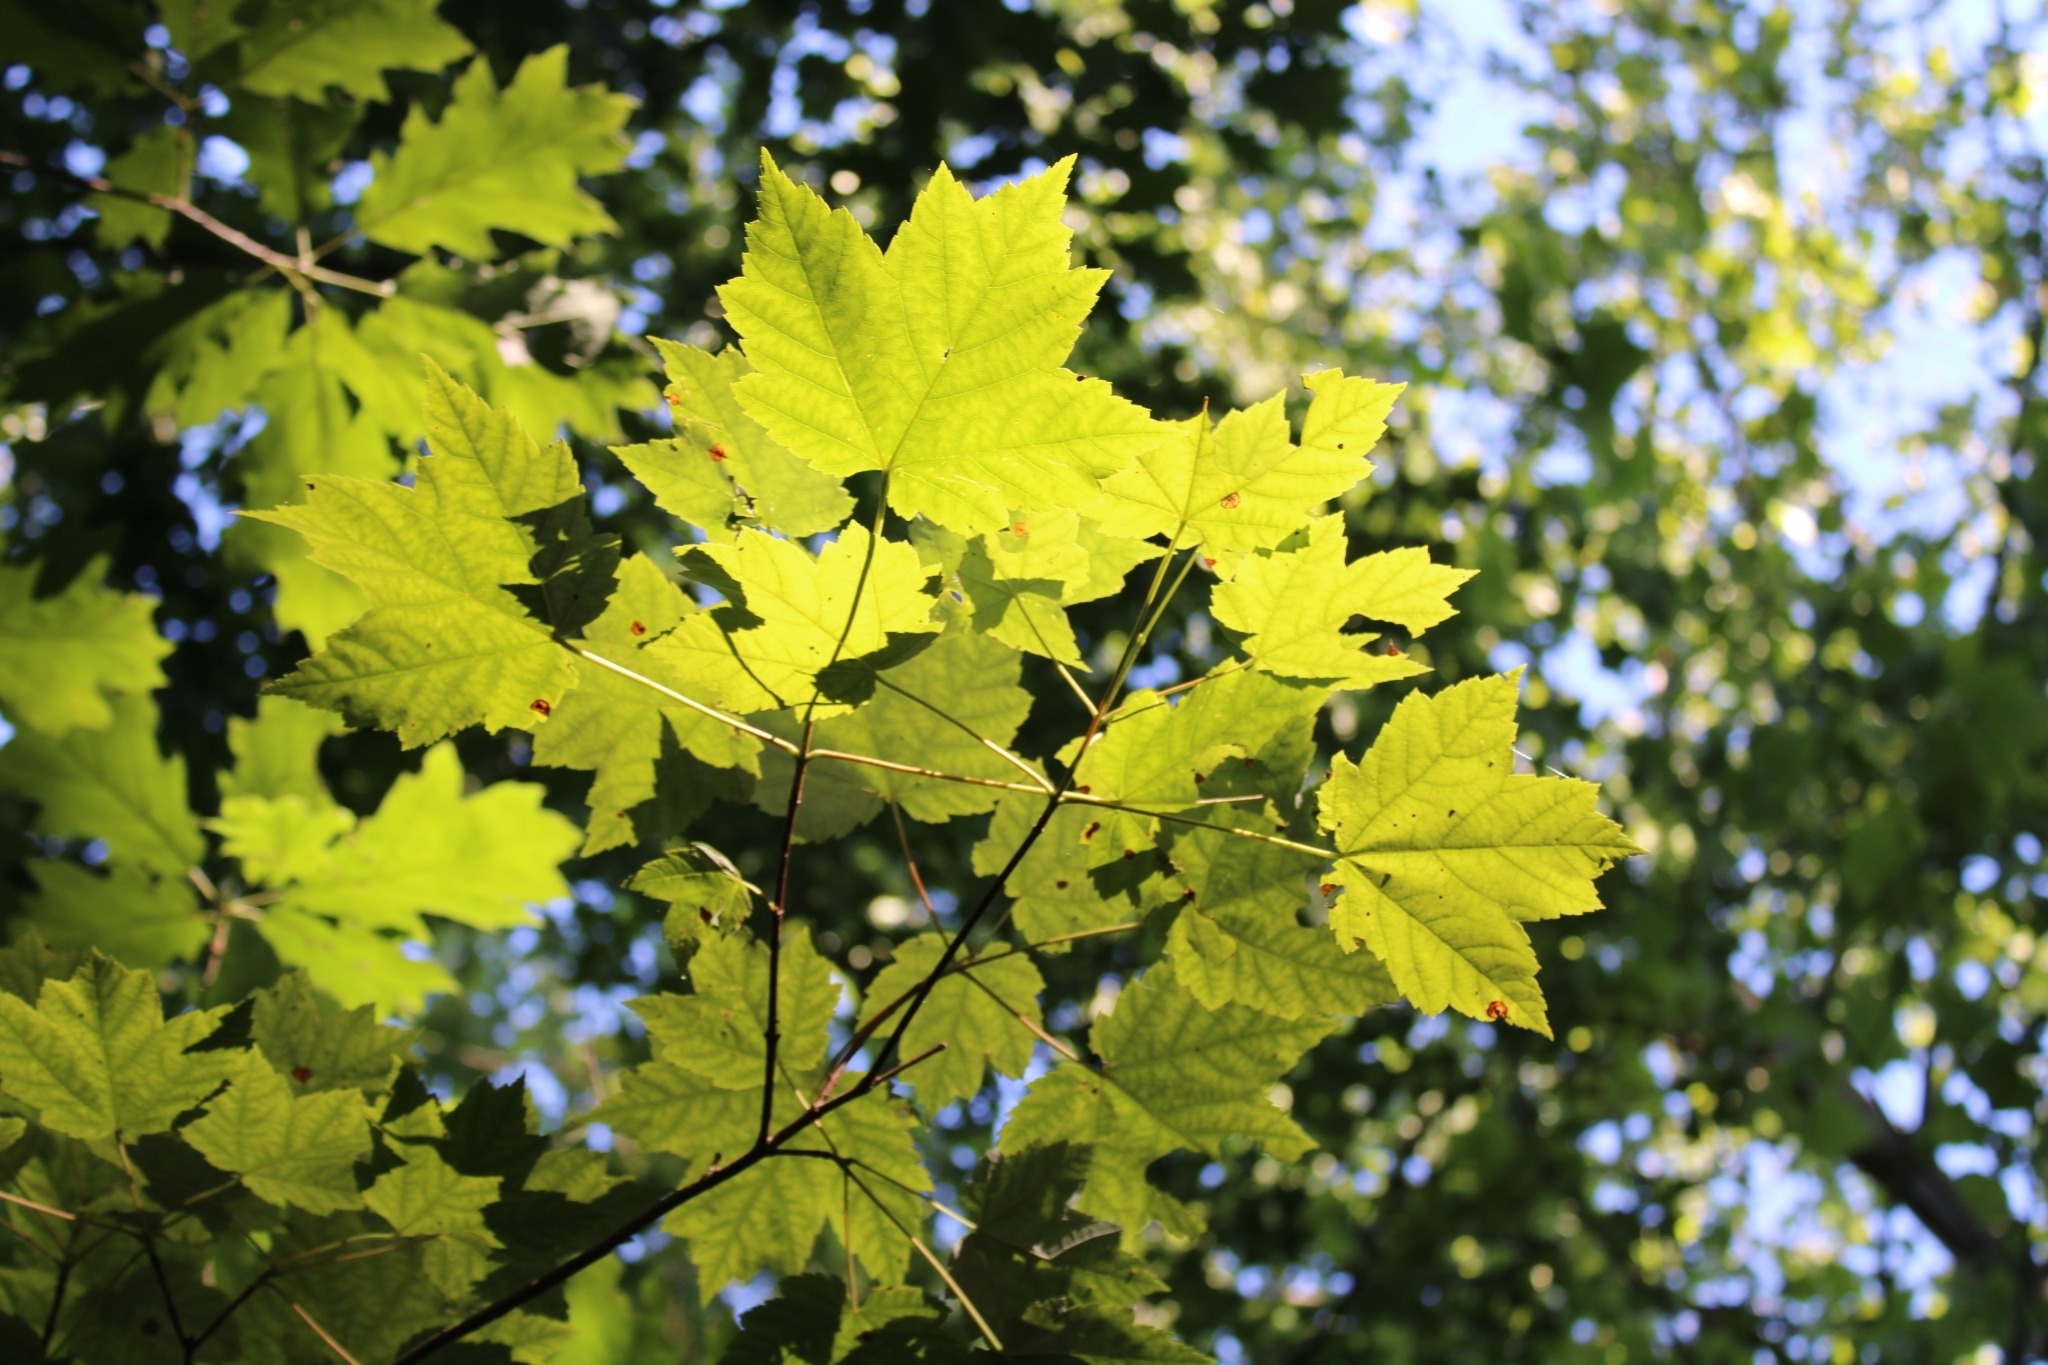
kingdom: Plantae
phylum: Tracheophyta
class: Magnoliopsida
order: Sapindales
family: Sapindaceae
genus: Acer
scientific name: Acer rubrum
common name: Red maple
